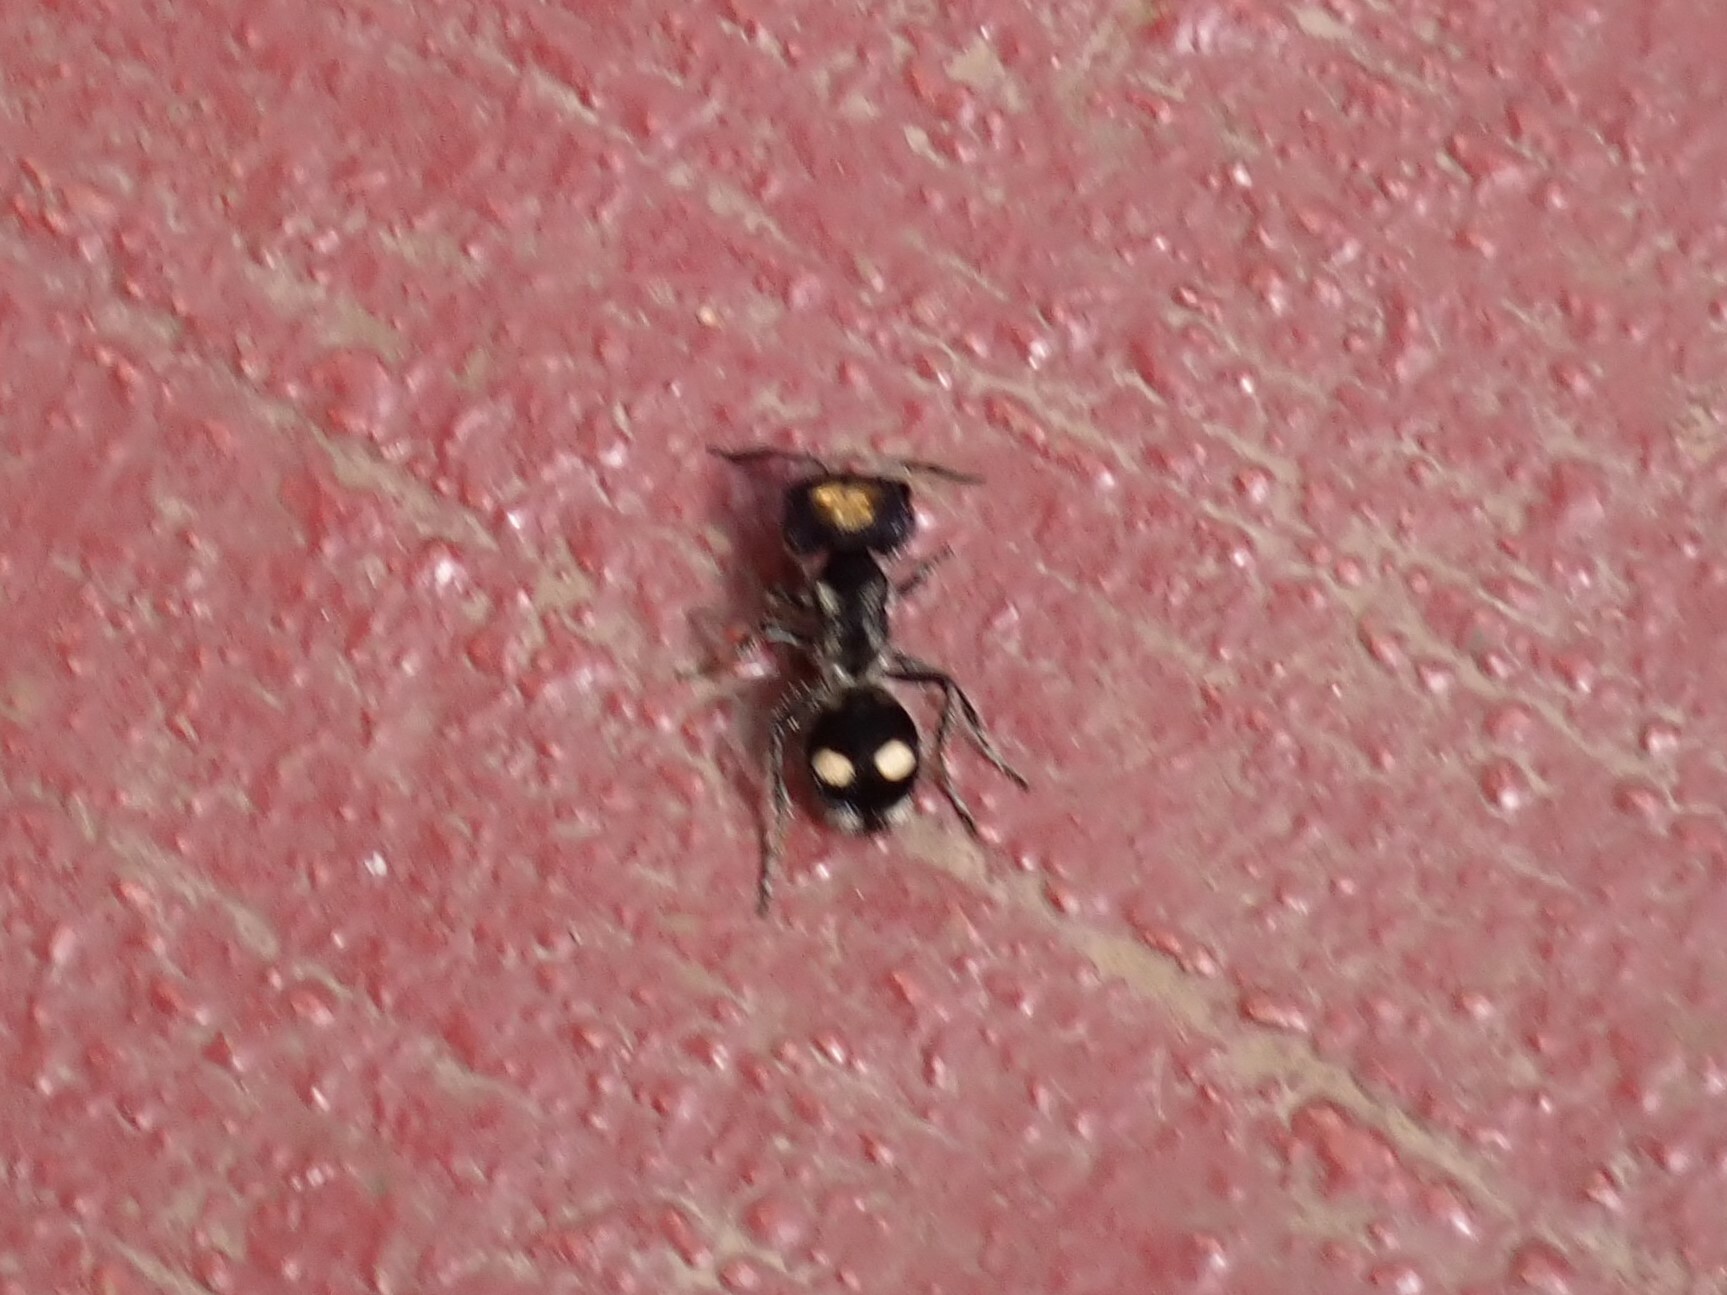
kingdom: Animalia
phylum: Arthropoda
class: Insecta
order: Hymenoptera
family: Mutillidae
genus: Hoplognathoca
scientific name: Hoplognathoca costarricensis
